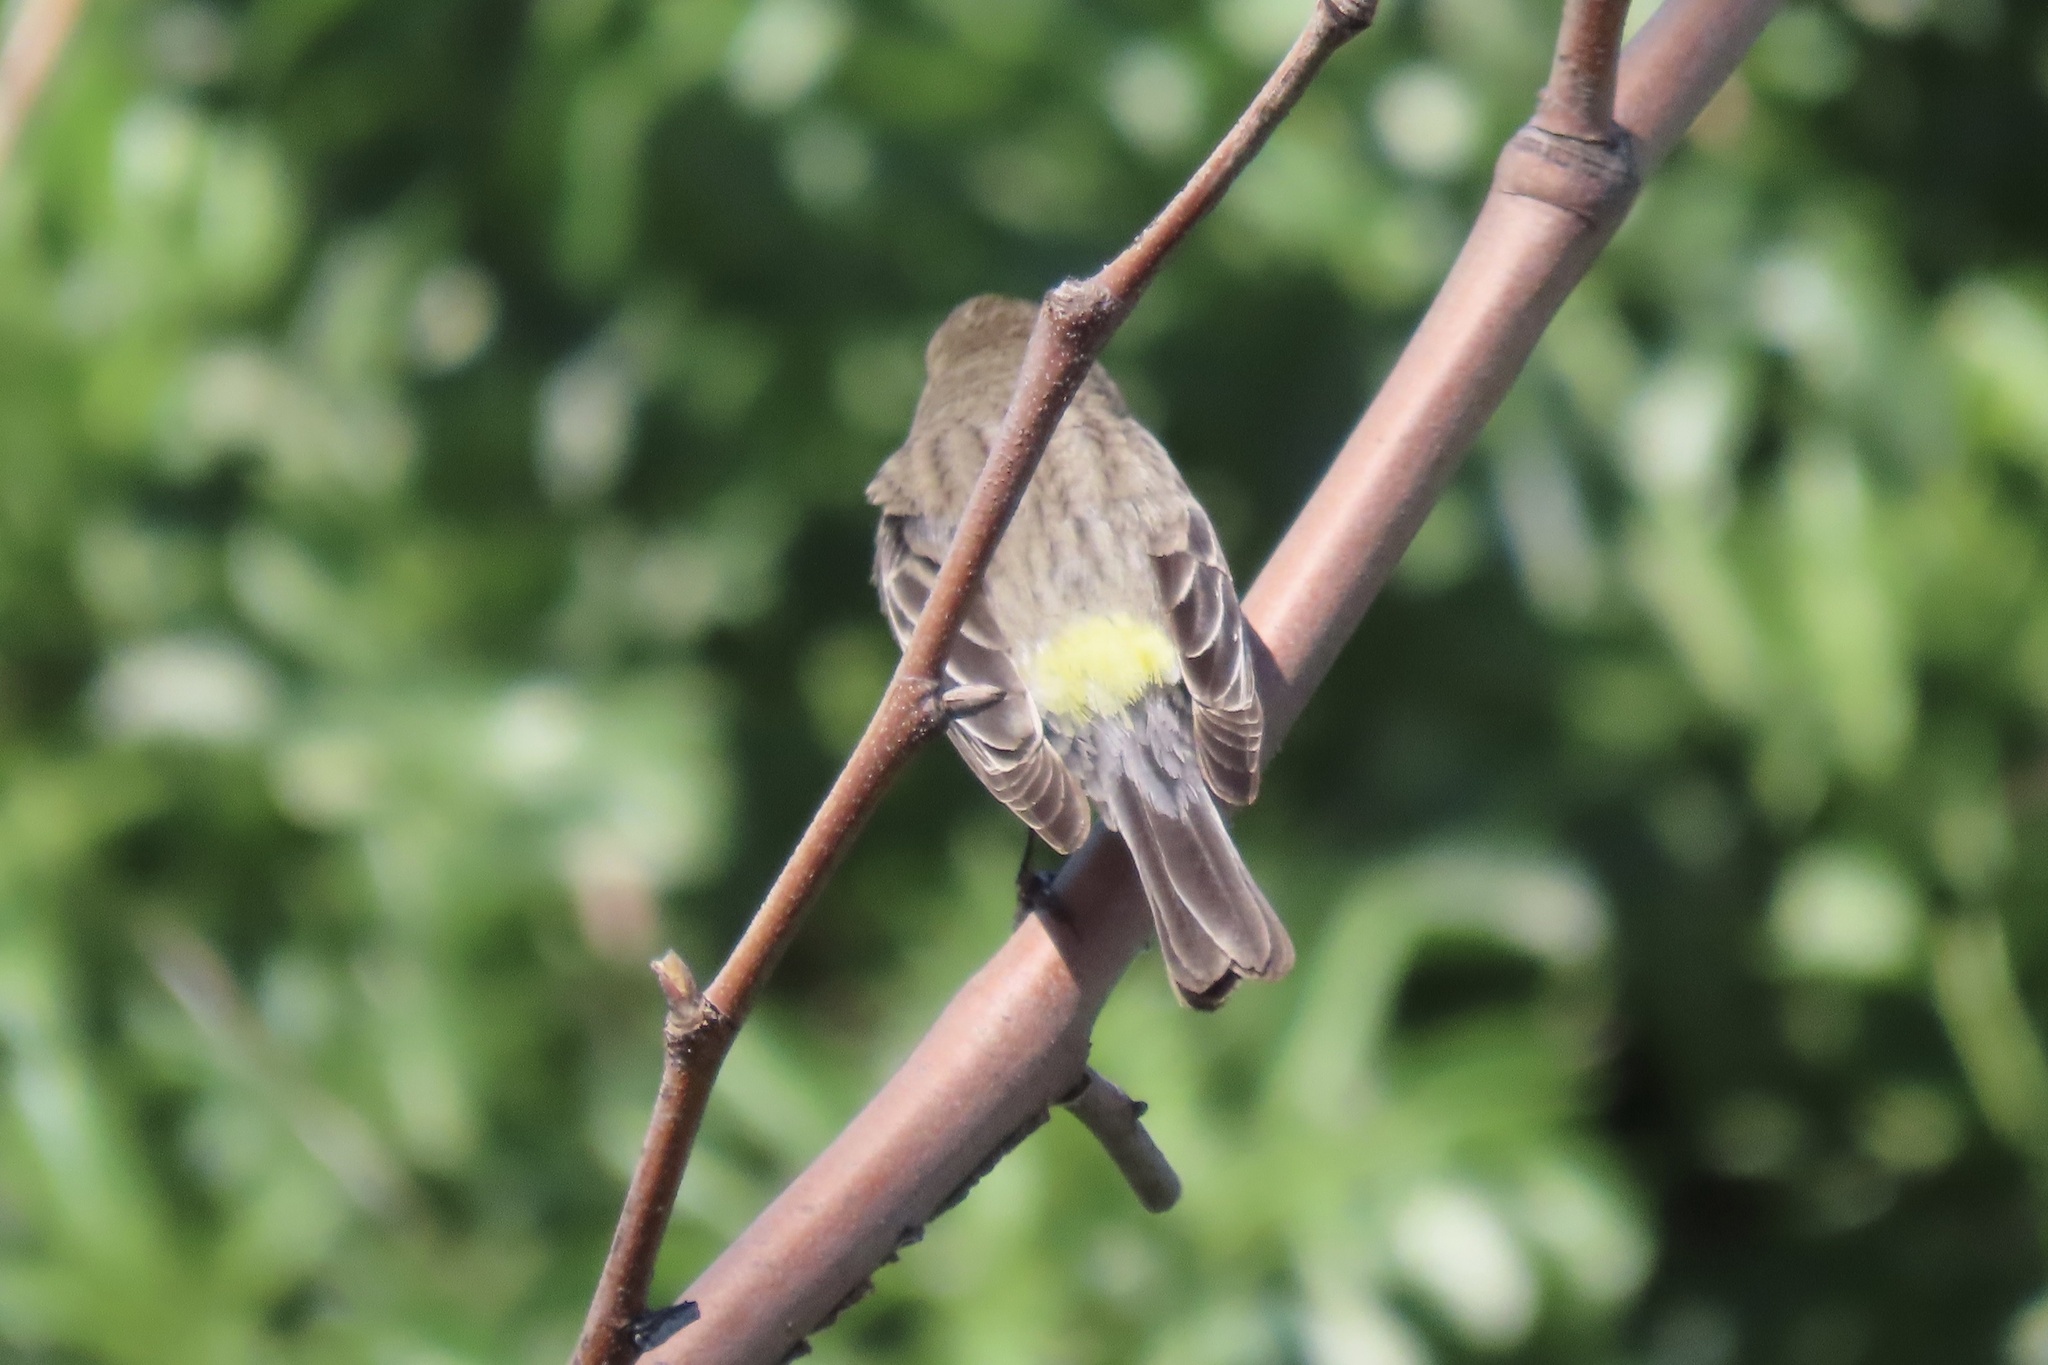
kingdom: Animalia
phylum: Chordata
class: Aves
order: Passeriformes
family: Parulidae
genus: Setophaga
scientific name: Setophaga coronata
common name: Myrtle warbler
